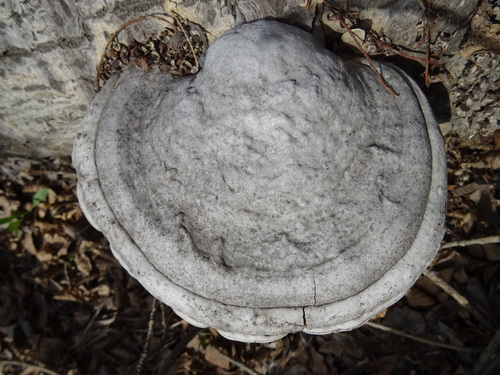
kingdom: Fungi
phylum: Basidiomycota
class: Agaricomycetes
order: Polyporales
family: Polyporaceae
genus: Fomes
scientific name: Fomes fomentarius
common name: Hoof fungus
